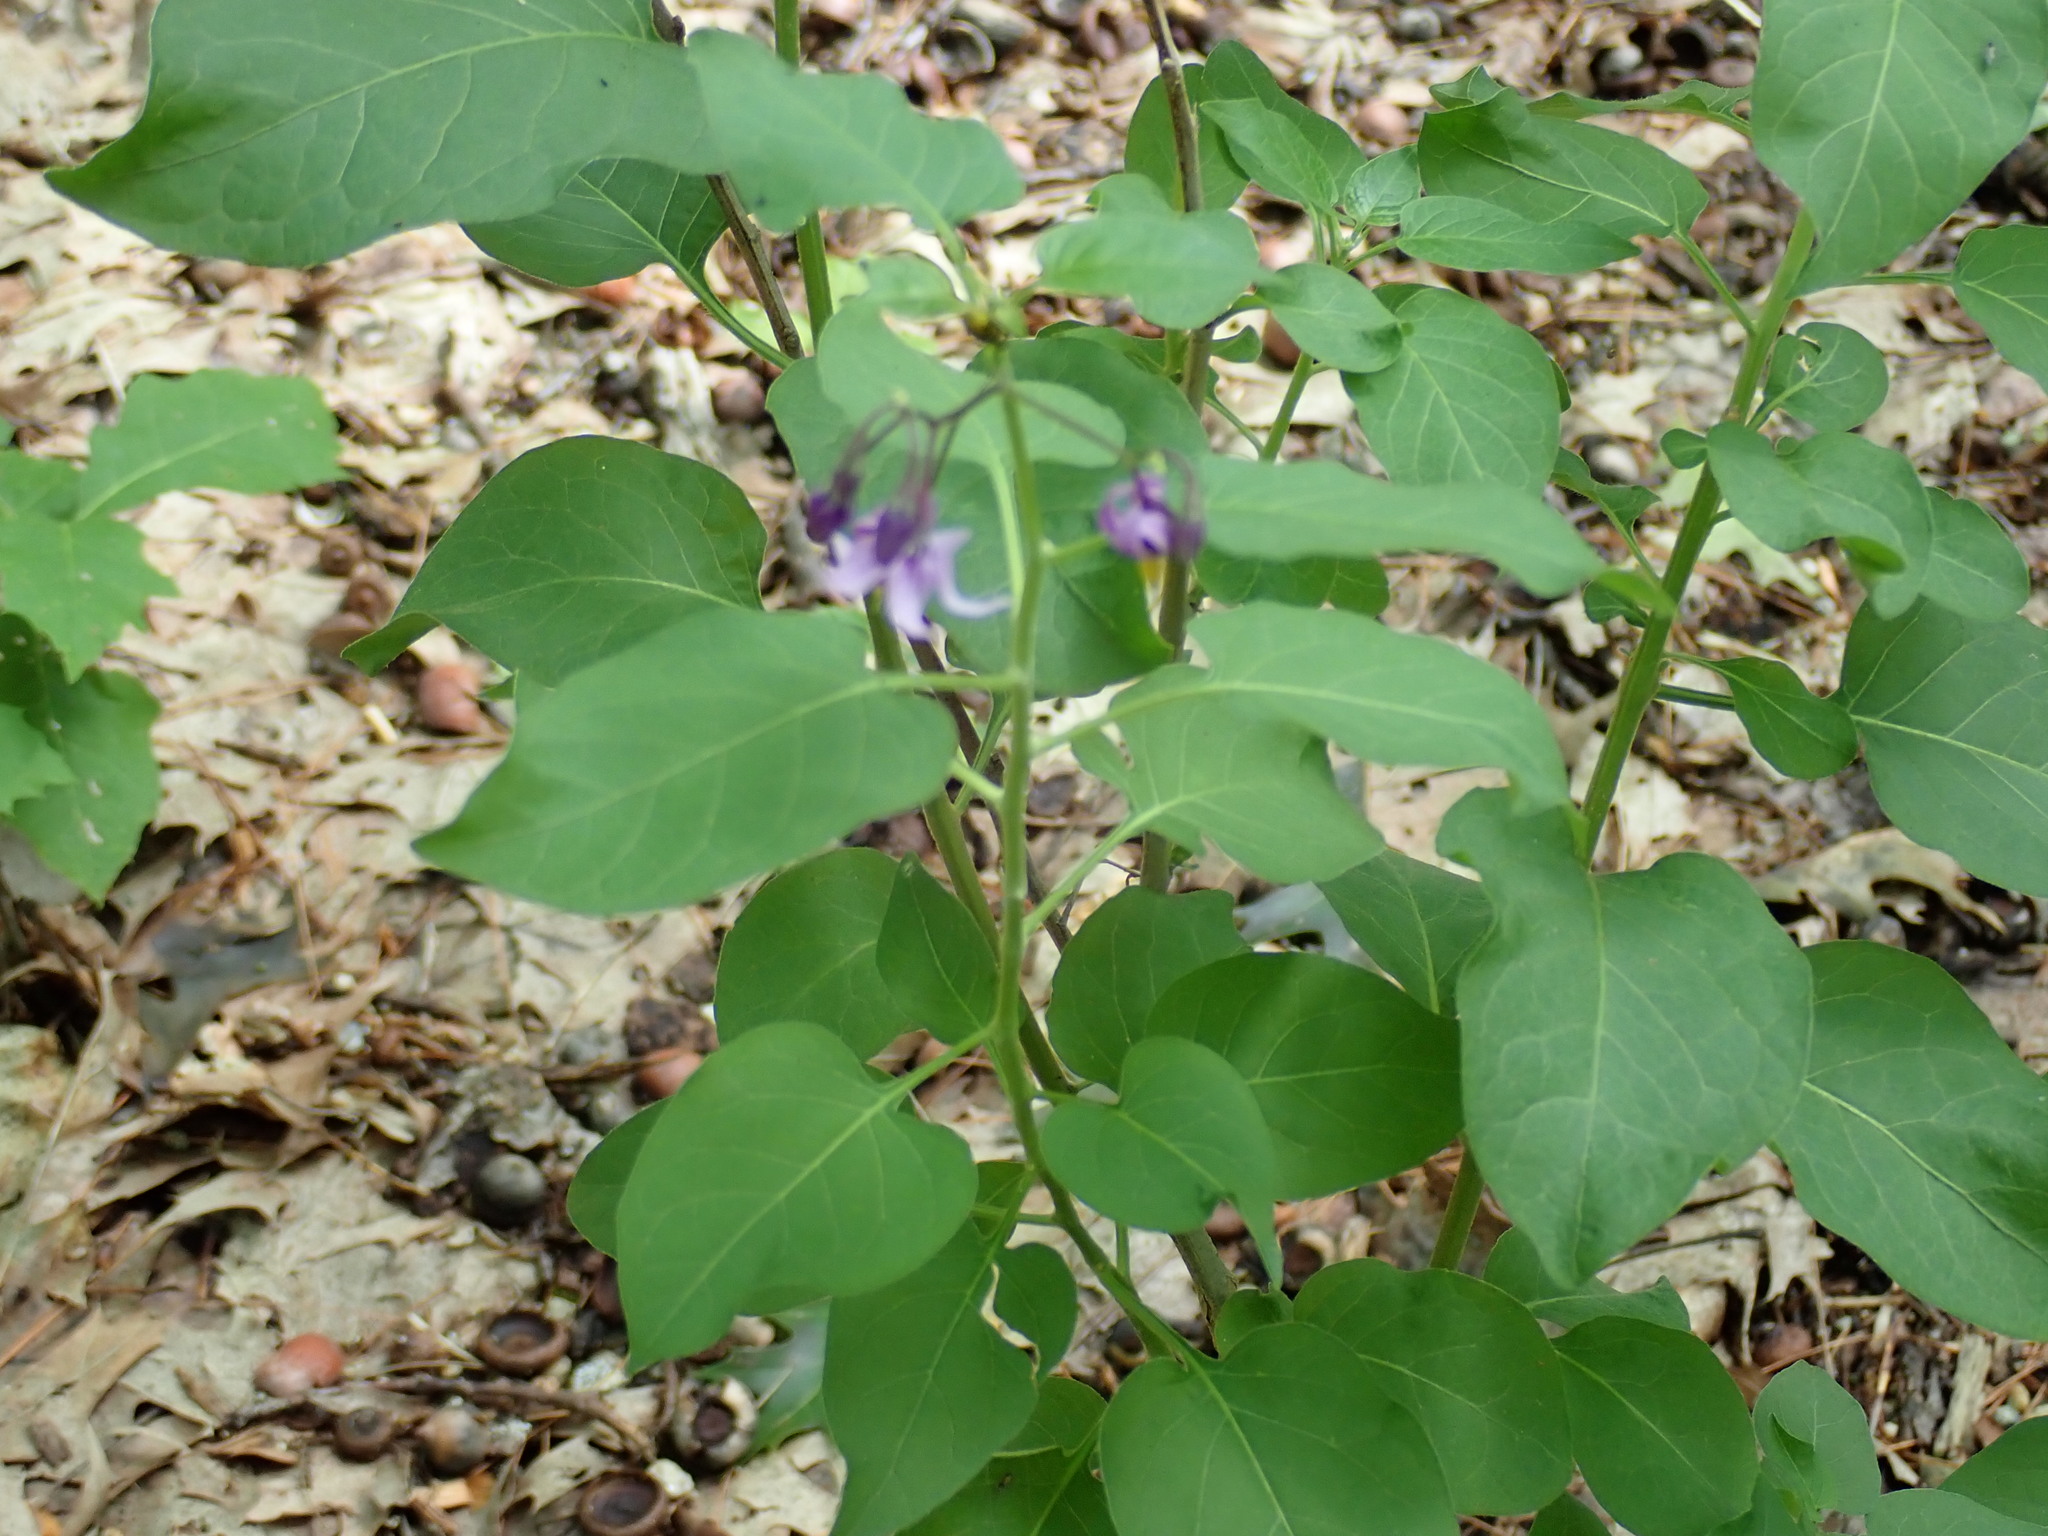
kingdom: Plantae
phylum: Tracheophyta
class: Magnoliopsida
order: Solanales
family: Solanaceae
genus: Solanum
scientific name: Solanum dulcamara
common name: Climbing nightshade
